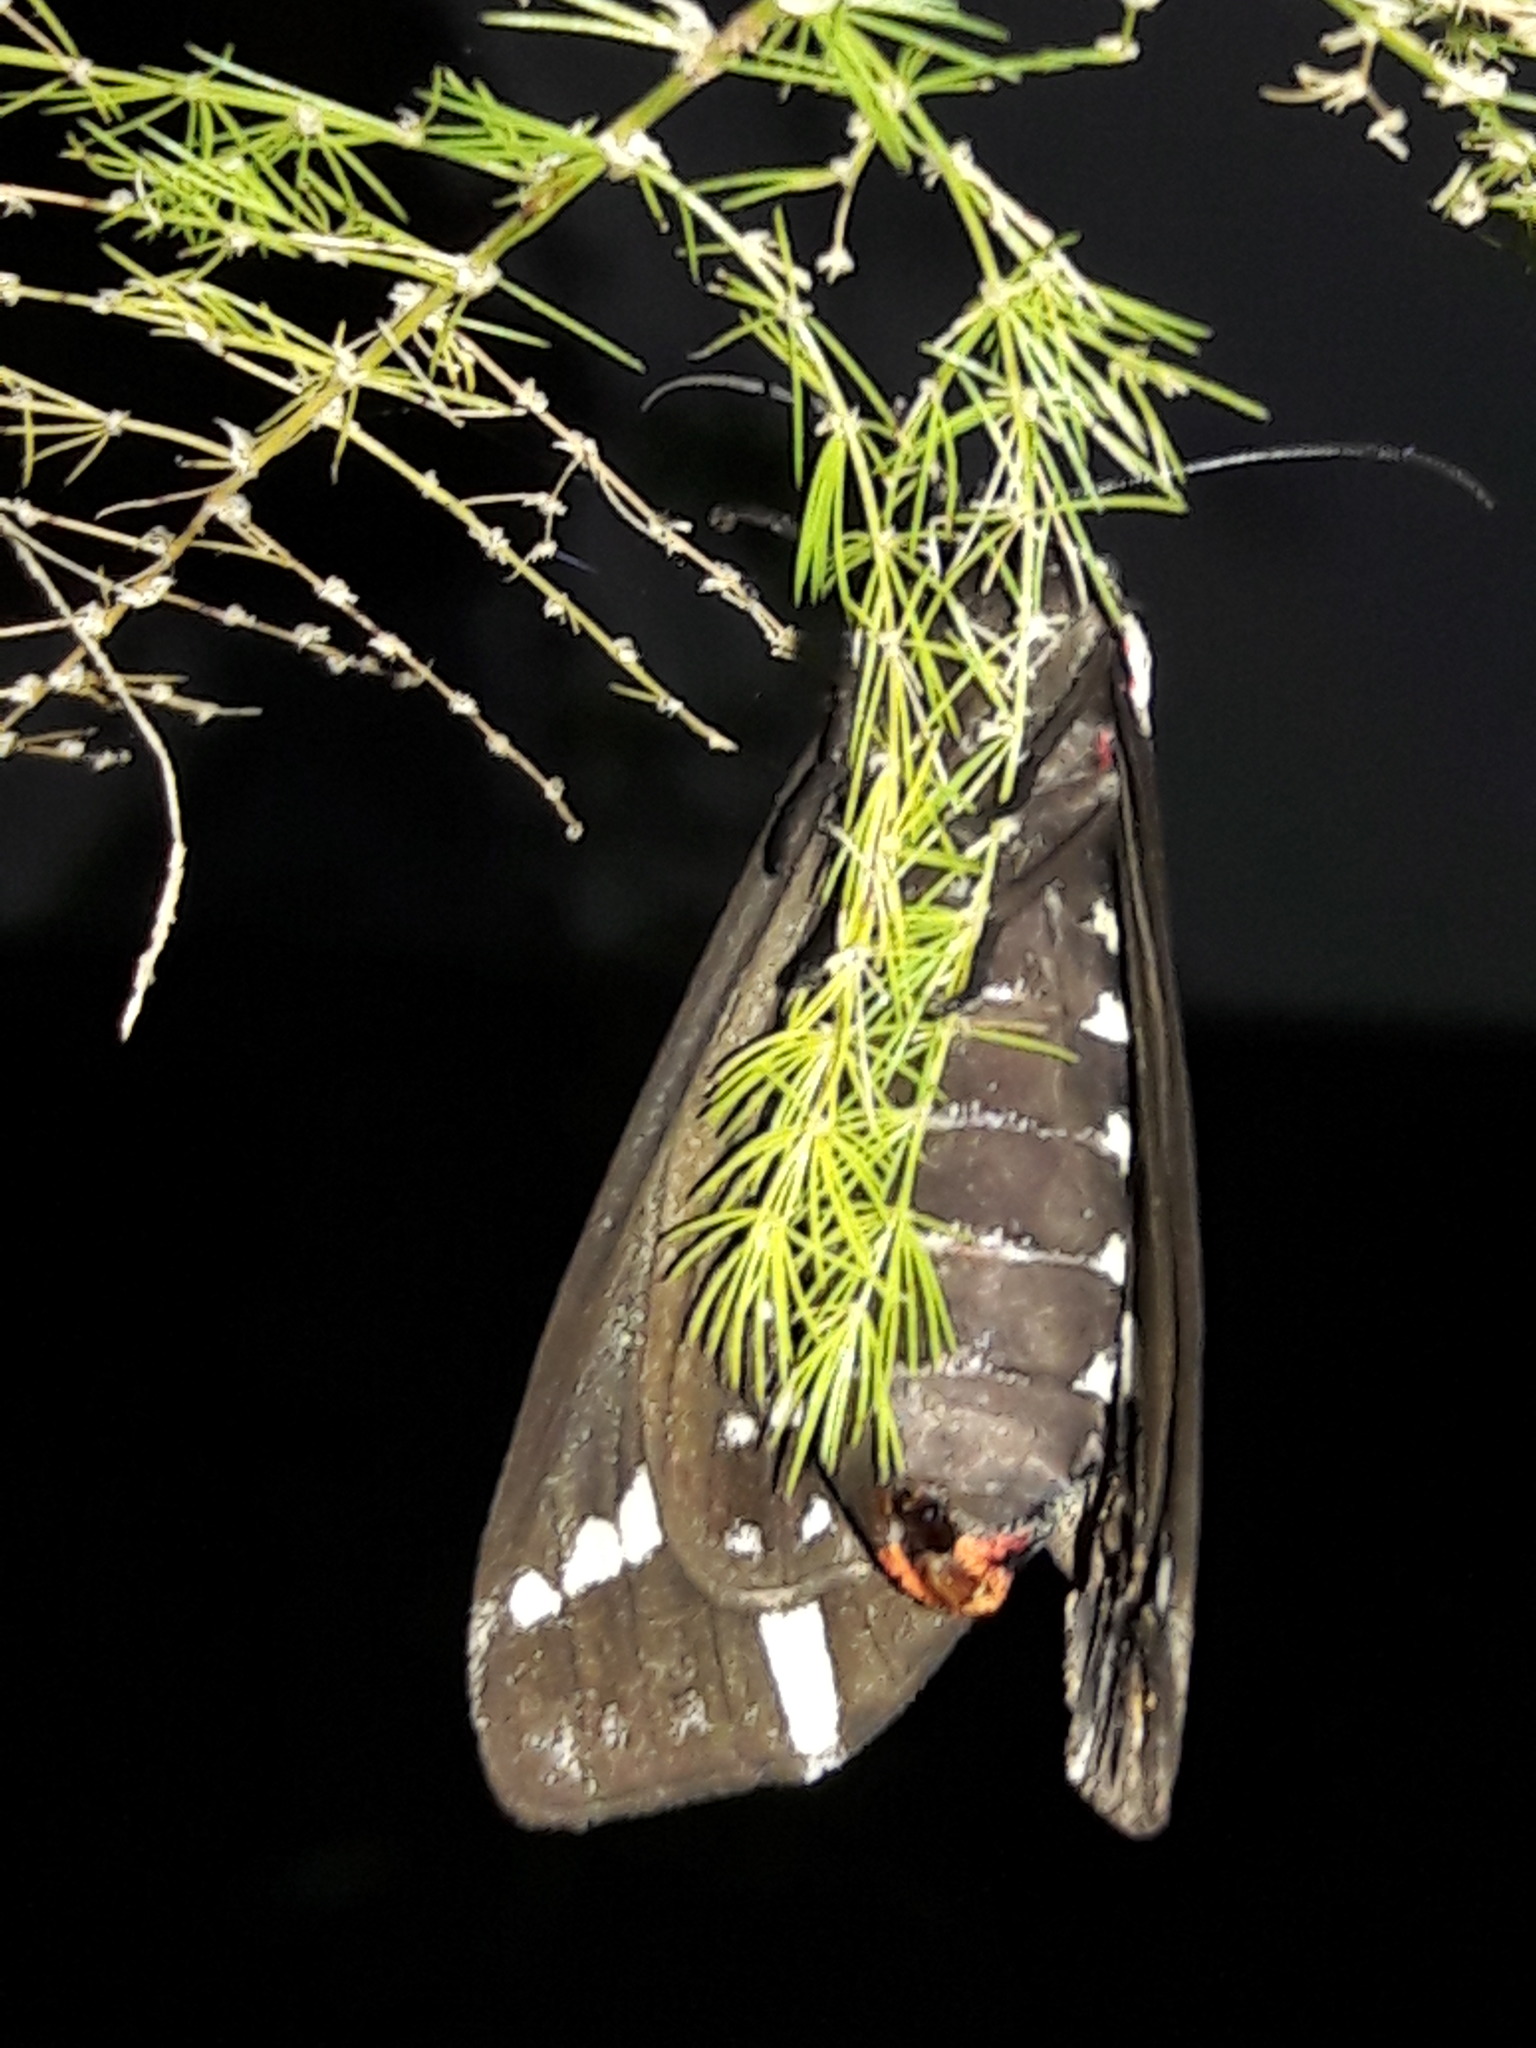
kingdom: Animalia
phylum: Arthropoda
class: Insecta
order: Lepidoptera
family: Erebidae
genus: Dysschema
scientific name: Dysschema sacrifica
